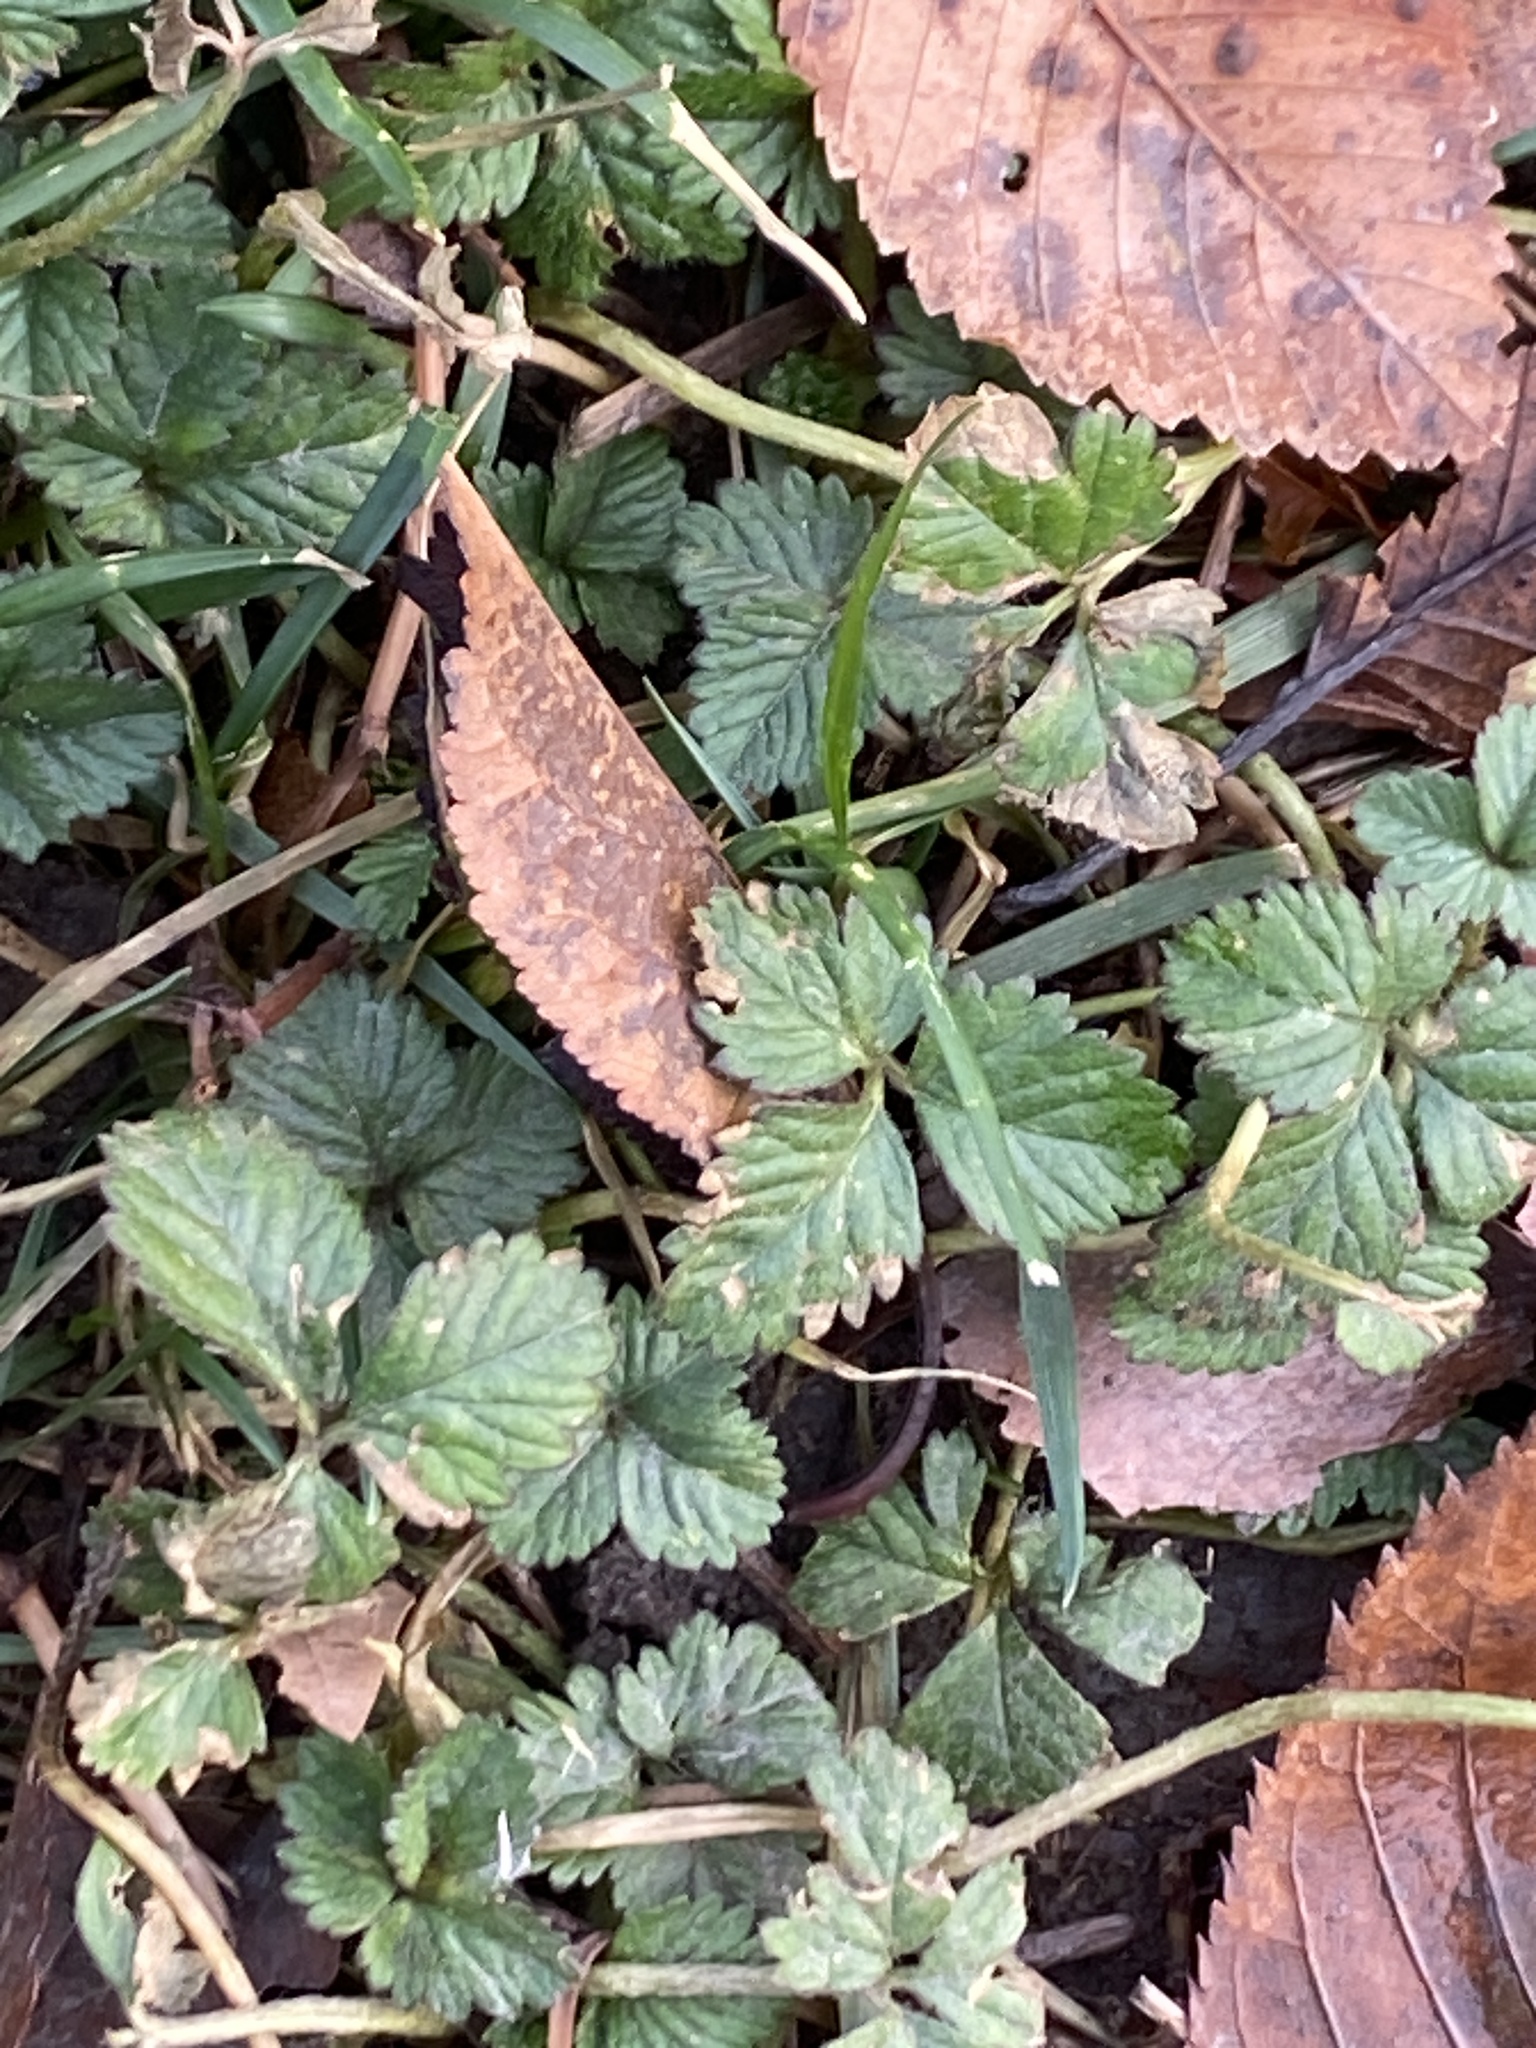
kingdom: Plantae
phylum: Tracheophyta
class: Magnoliopsida
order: Rosales
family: Rosaceae
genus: Potentilla
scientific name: Potentilla indica
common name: Yellow-flowered strawberry
